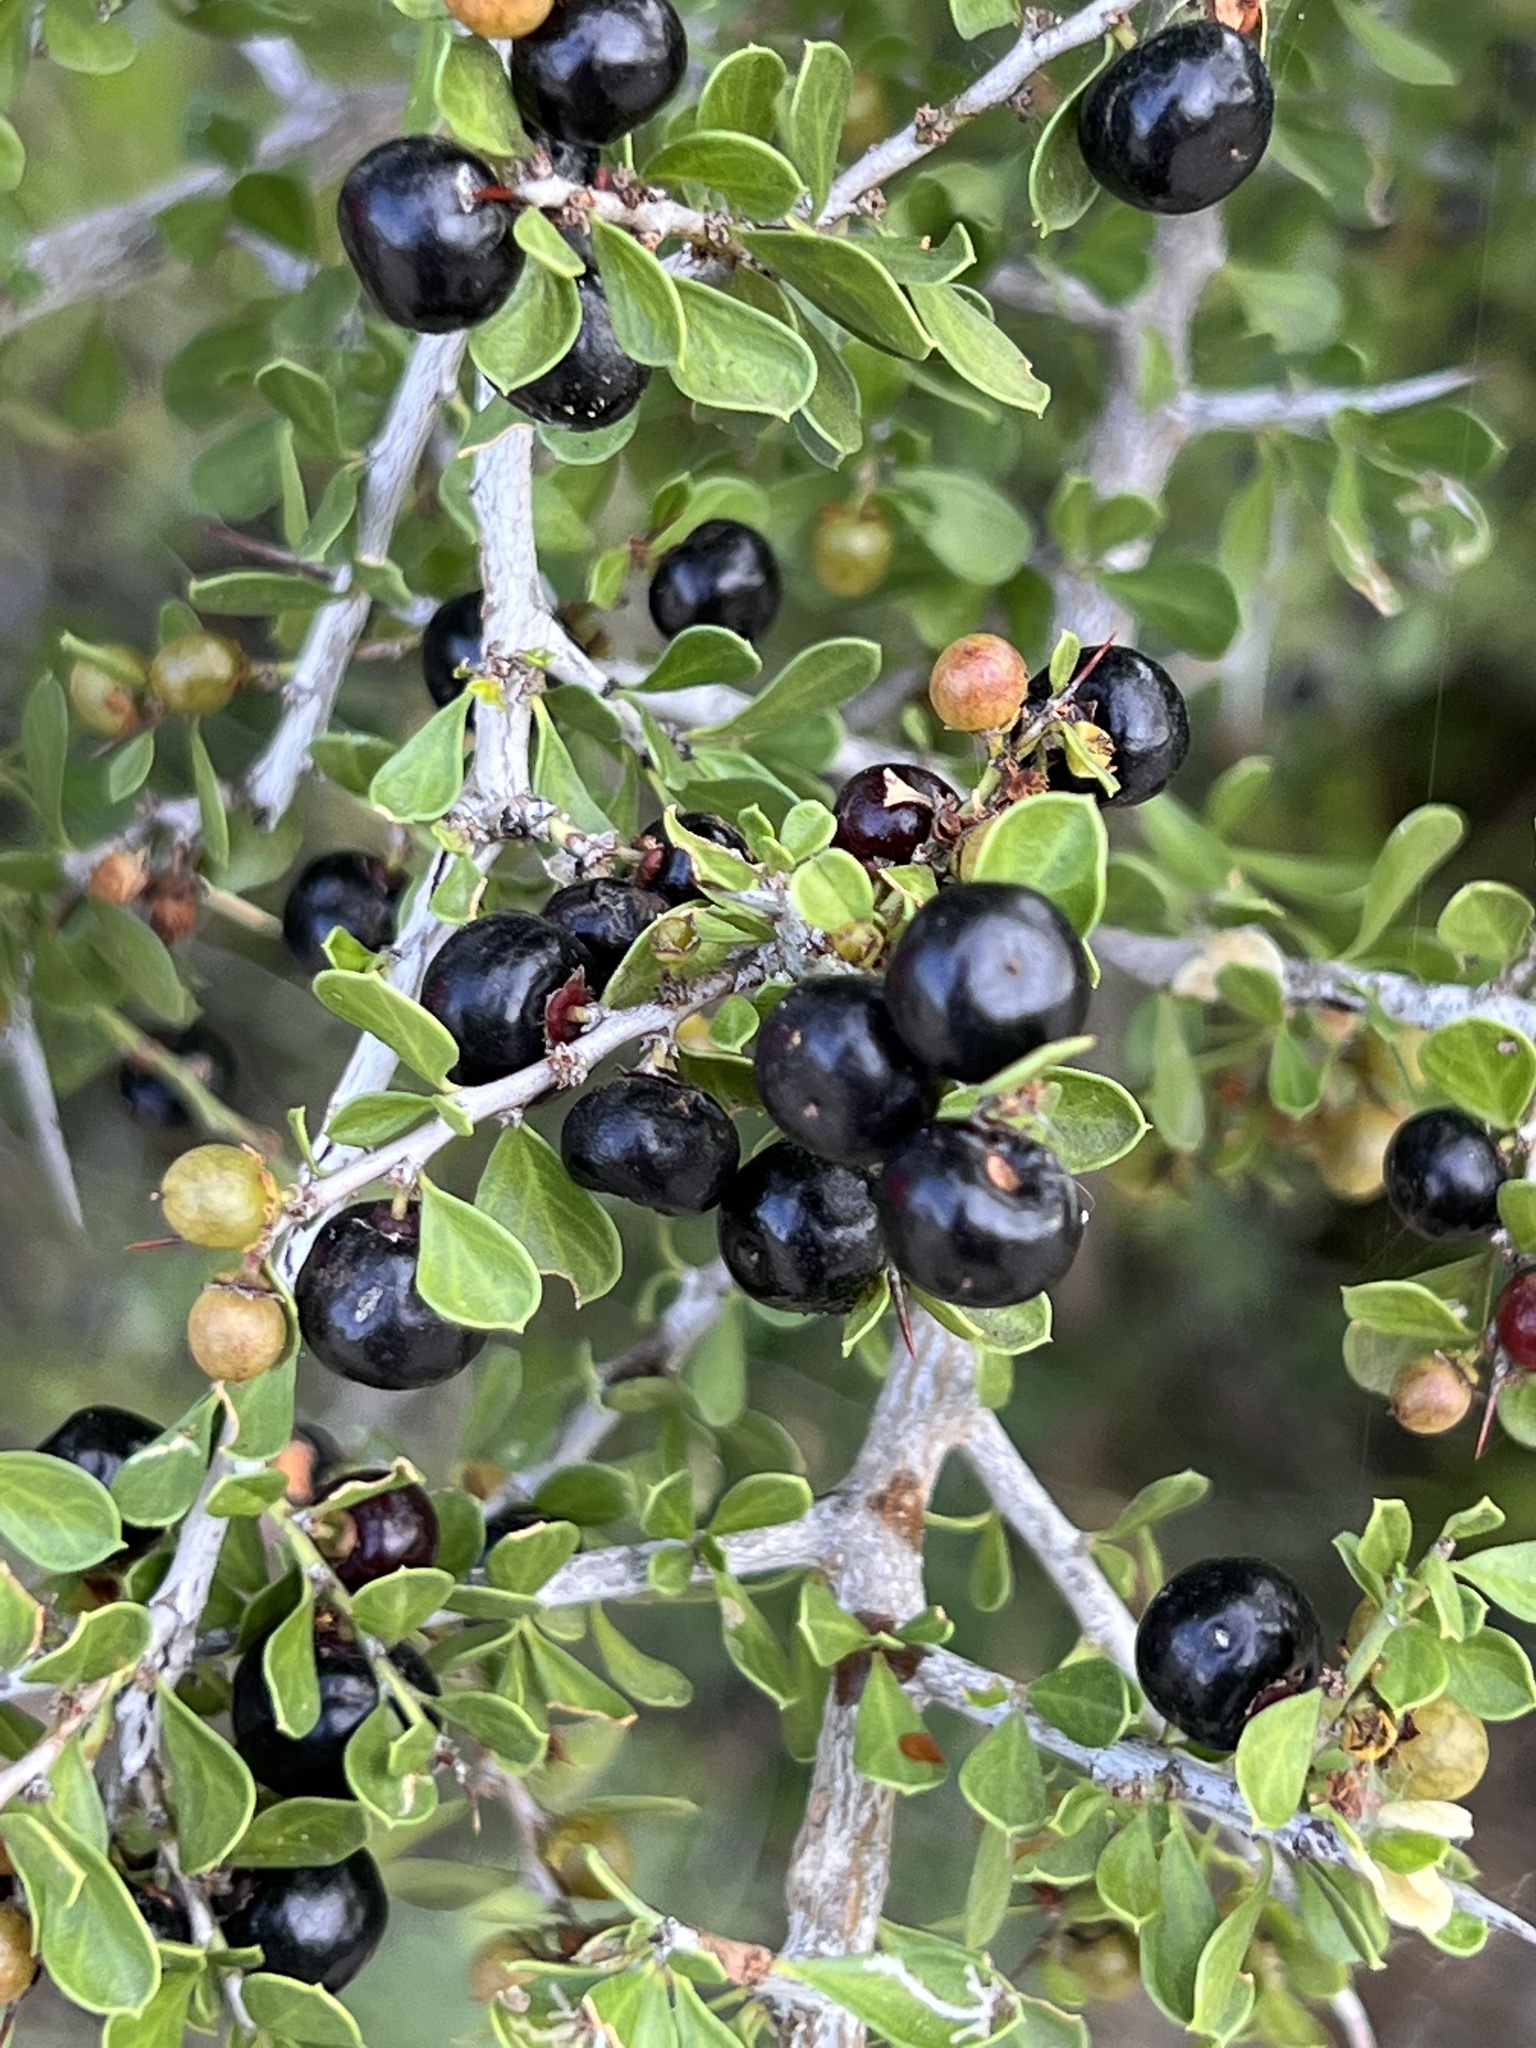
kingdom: Plantae
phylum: Tracheophyta
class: Magnoliopsida
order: Rosales
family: Rhamnaceae
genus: Condalia
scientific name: Condalia viridis
